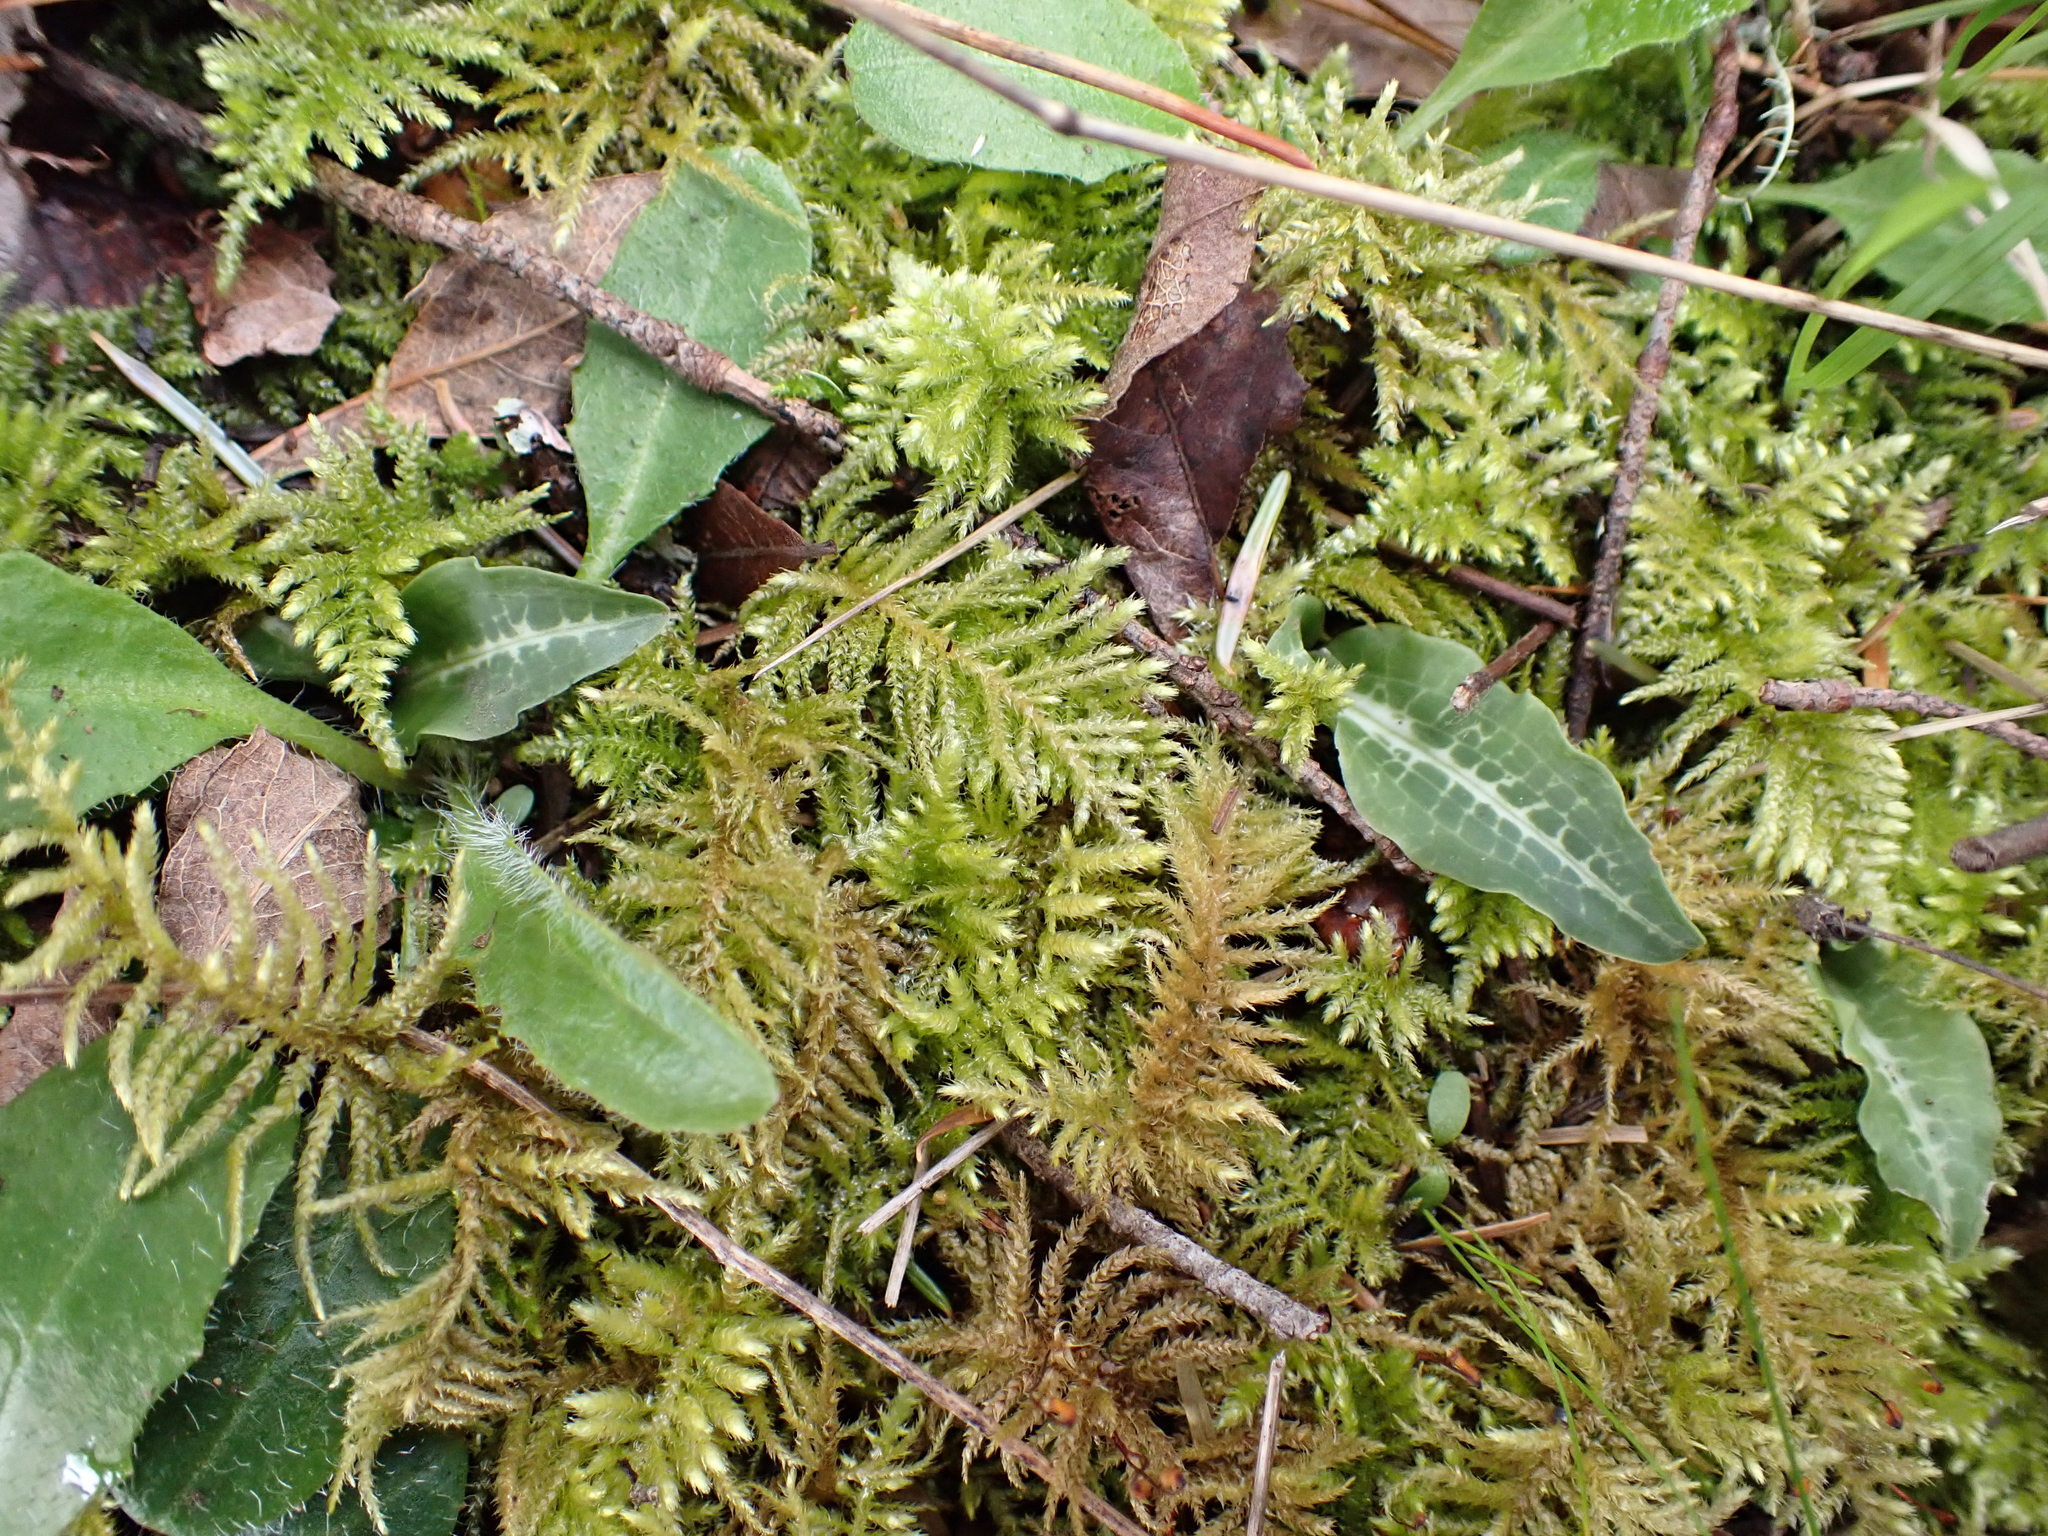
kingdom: Plantae
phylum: Tracheophyta
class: Liliopsida
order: Asparagales
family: Orchidaceae
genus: Goodyera
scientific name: Goodyera oblongifolia
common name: Giant rattlesnake-plantain
